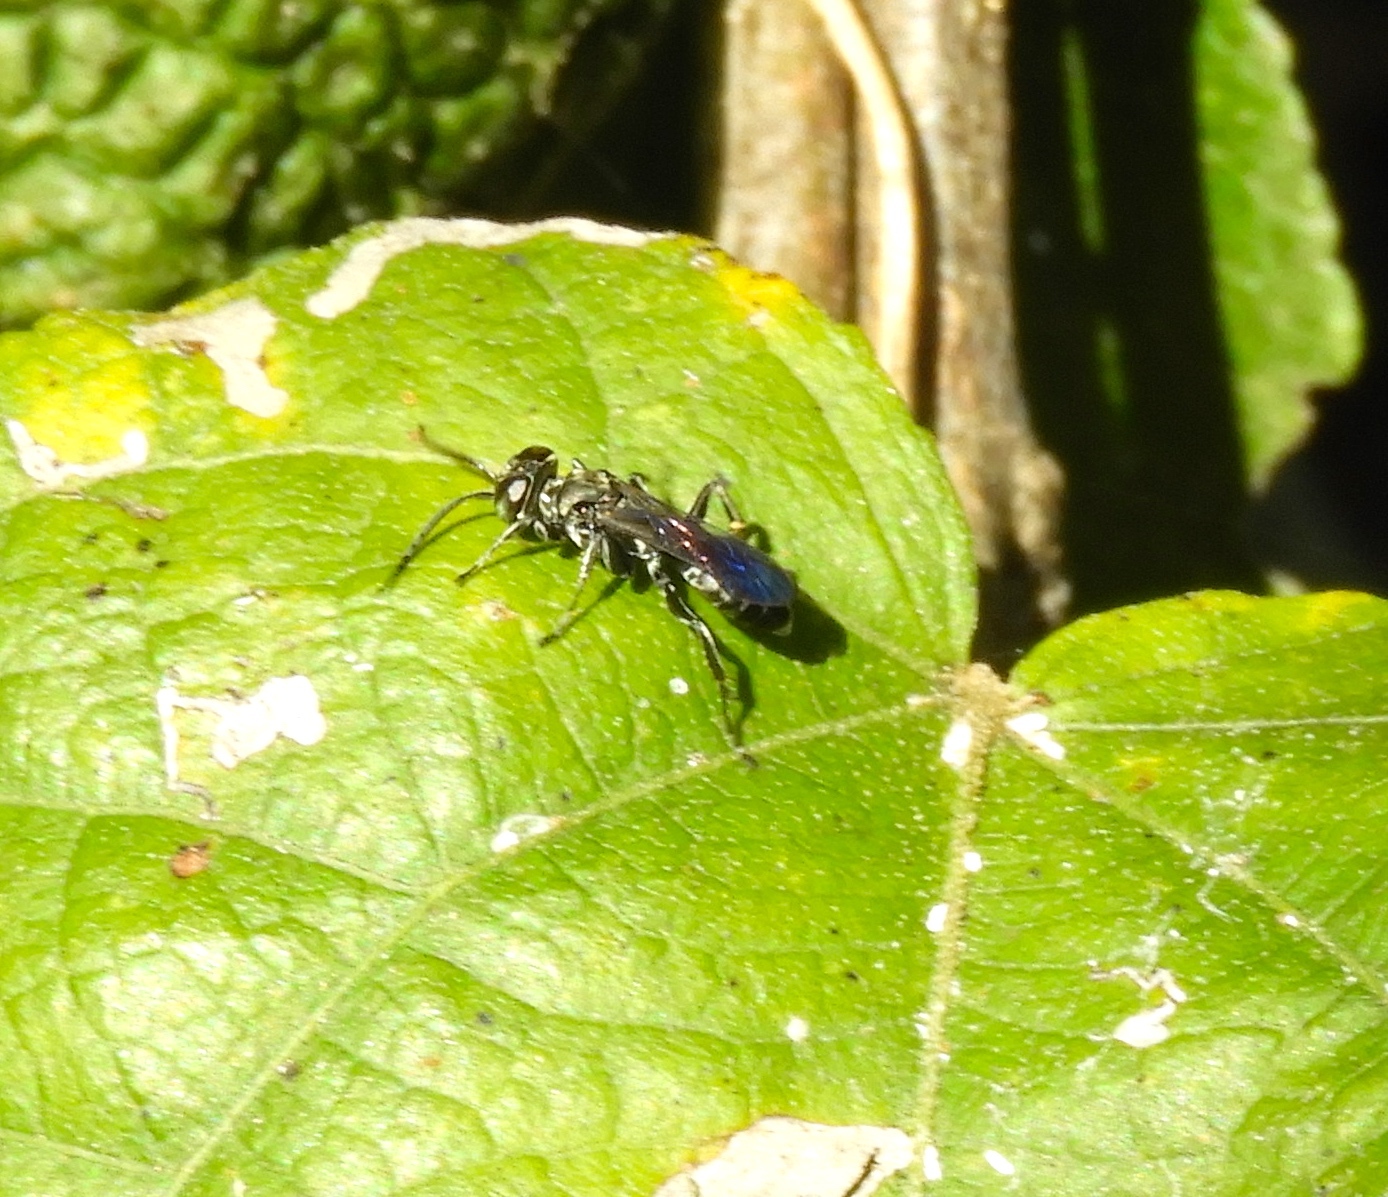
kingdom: Animalia
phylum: Arthropoda
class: Insecta
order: Hymenoptera
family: Crabronidae
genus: Larra
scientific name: Larra
